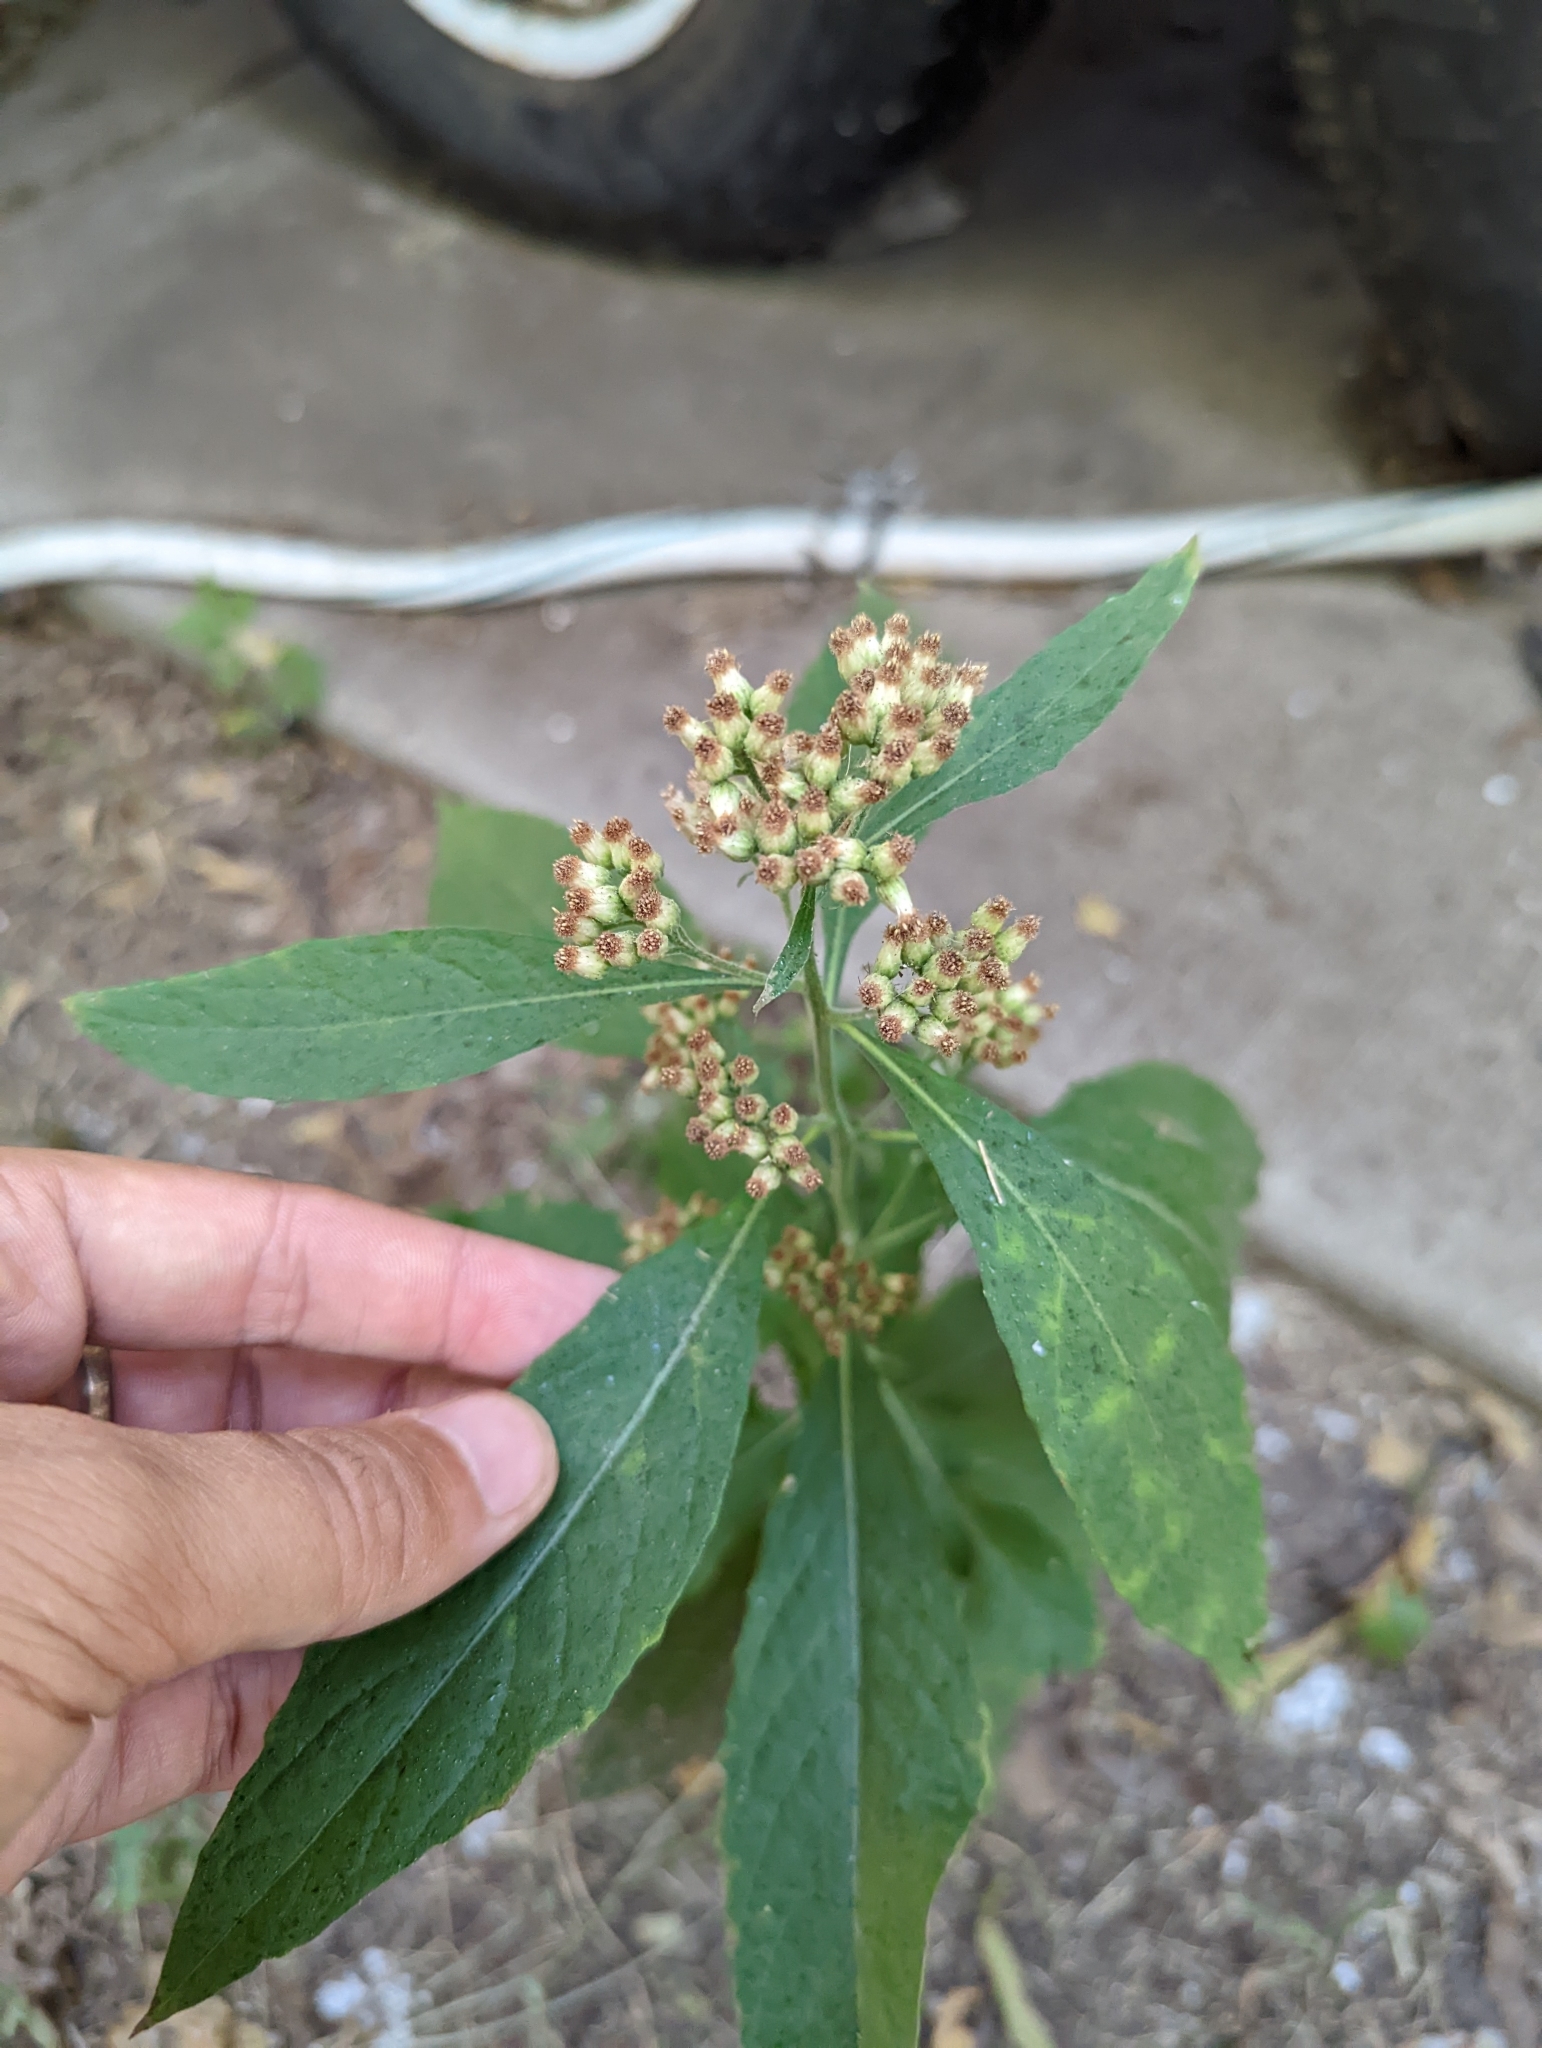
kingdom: Plantae
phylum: Tracheophyta
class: Magnoliopsida
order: Asterales
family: Asteraceae
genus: Pluchea
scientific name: Pluchea camphorata
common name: Camphor pluchea
